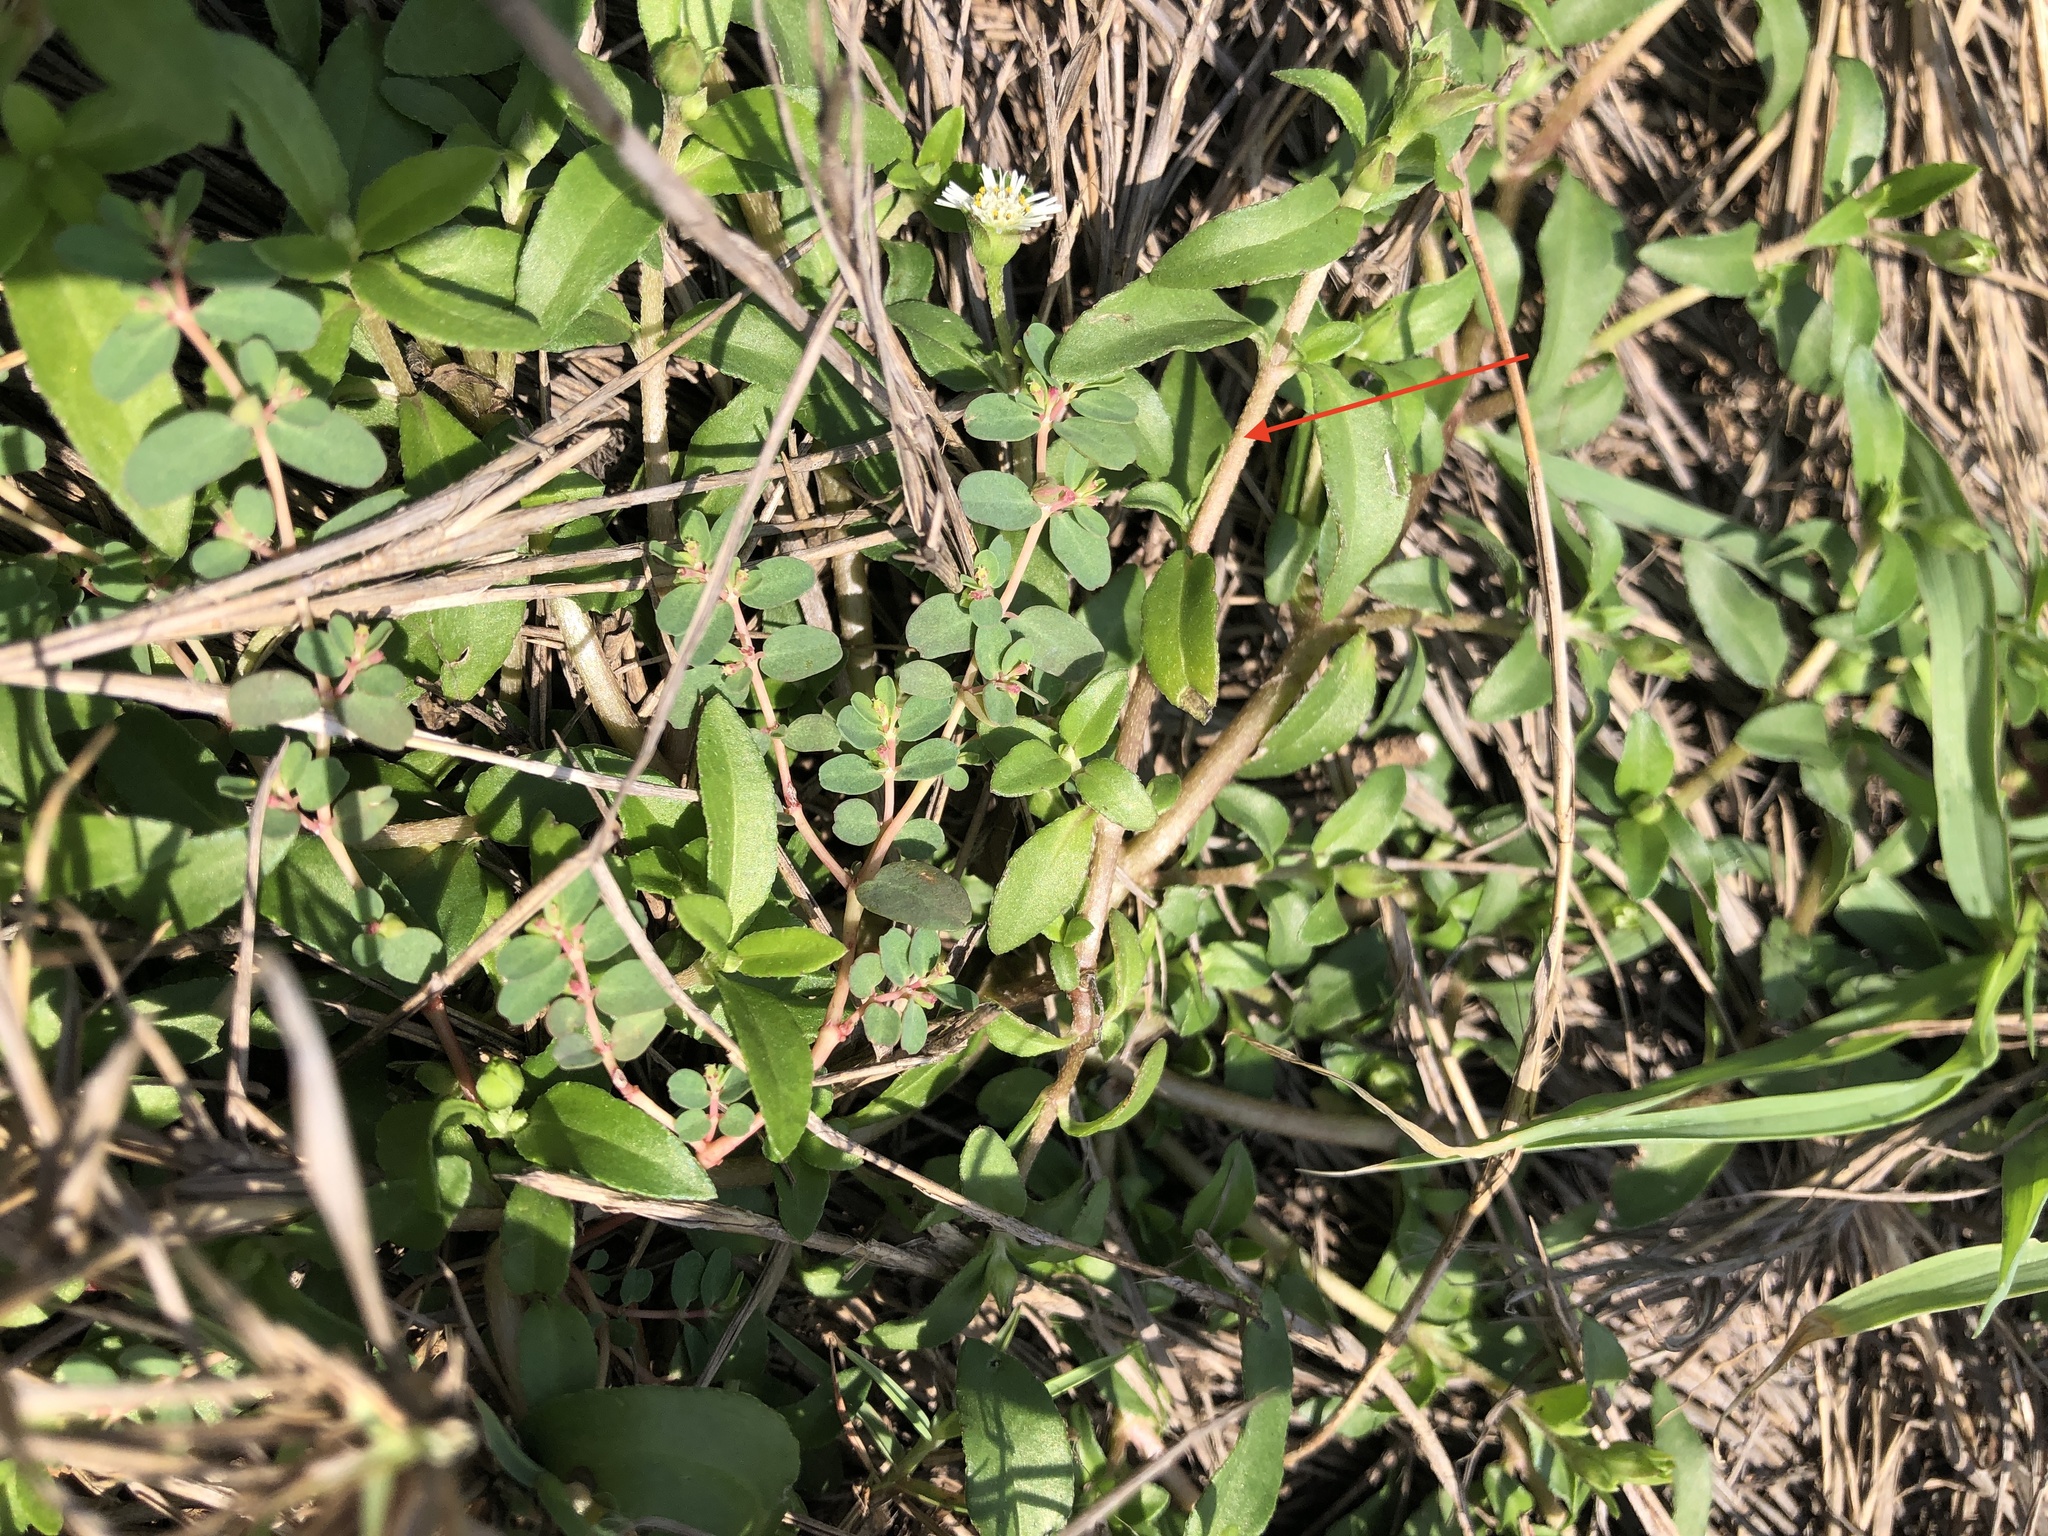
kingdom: Plantae
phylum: Tracheophyta
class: Magnoliopsida
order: Asterales
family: Asteraceae
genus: Eclipta
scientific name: Eclipta prostrata
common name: False daisy
